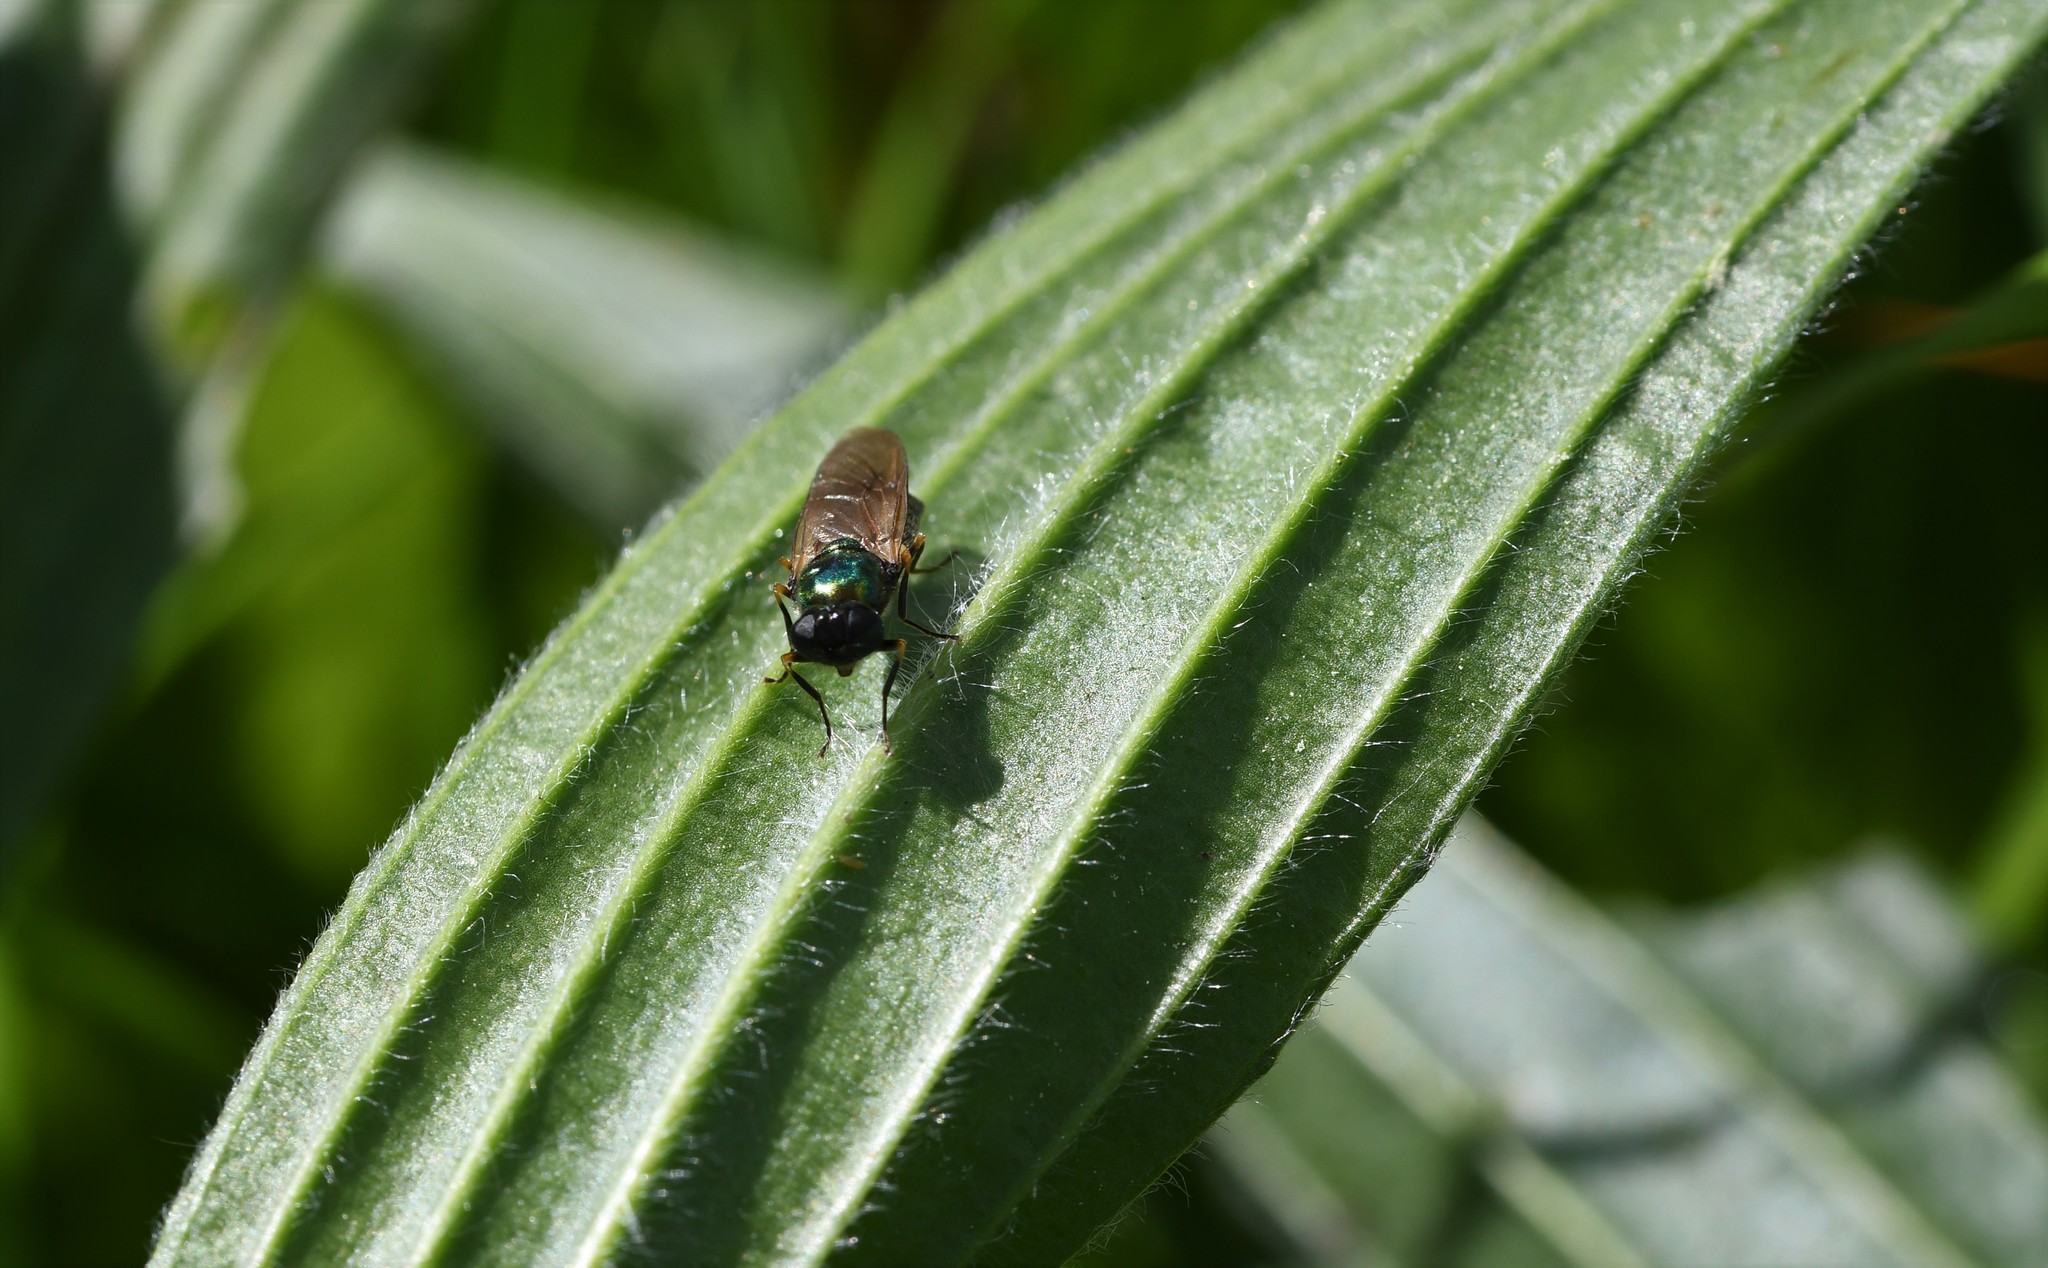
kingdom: Animalia
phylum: Arthropoda
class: Insecta
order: Diptera
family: Stratiomyidae
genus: Chloromyia
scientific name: Chloromyia formosa
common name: Soldier fly
